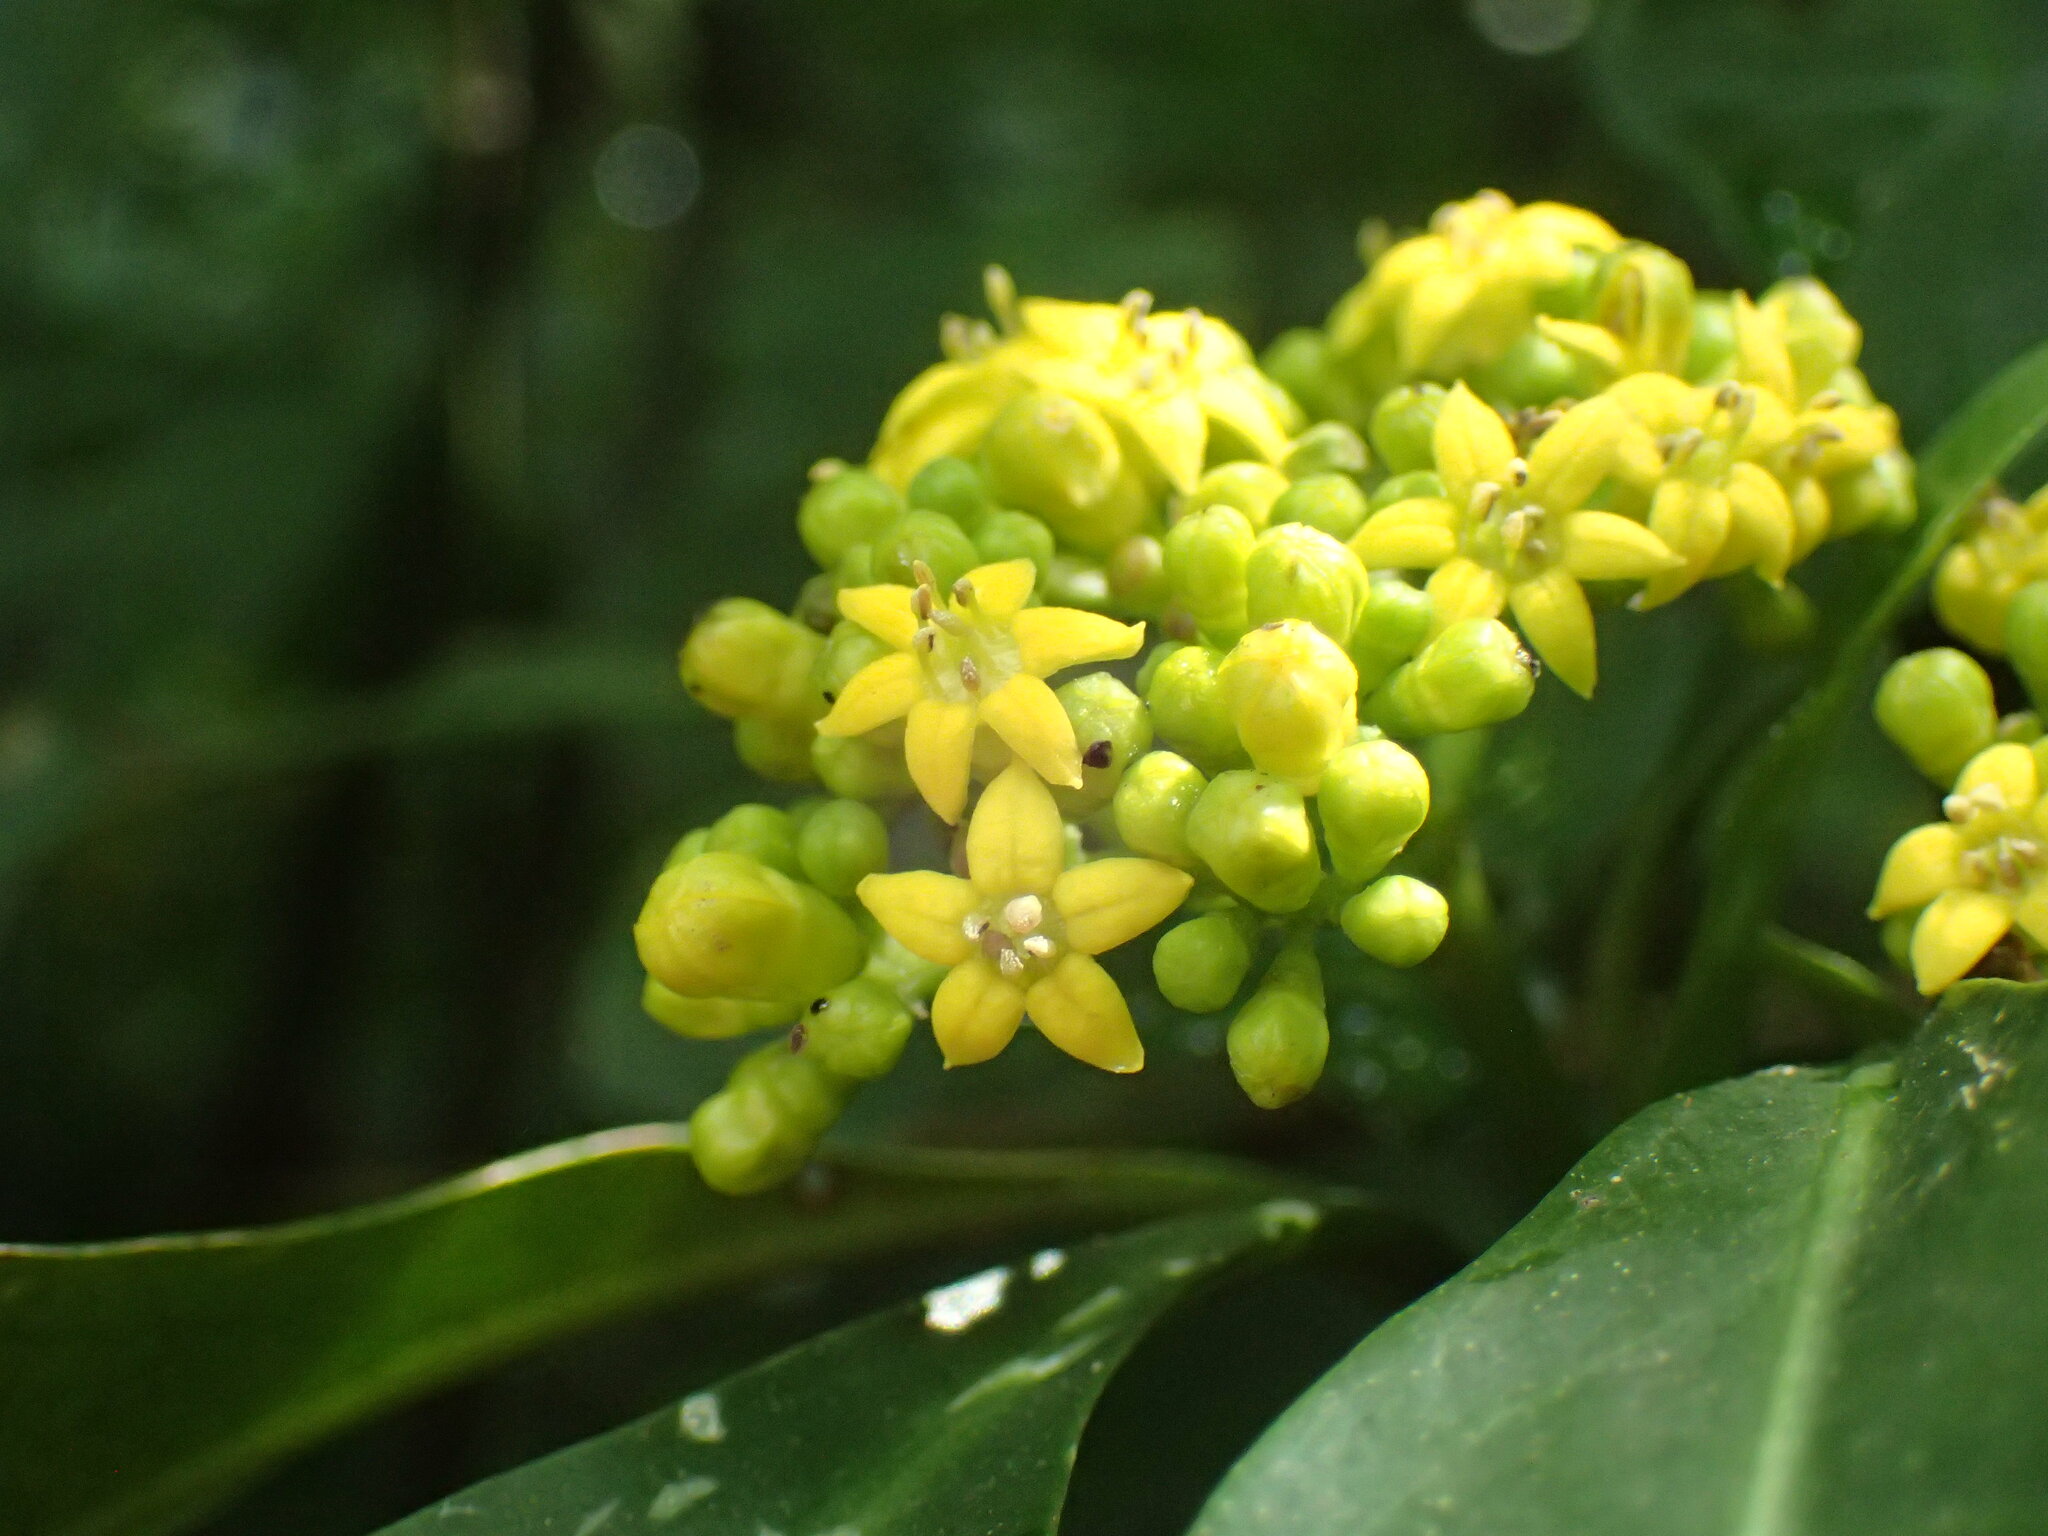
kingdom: Plantae
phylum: Tracheophyta
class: Magnoliopsida
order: Gentianales
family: Rubiaceae
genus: Psychotria
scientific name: Psychotria capensis
